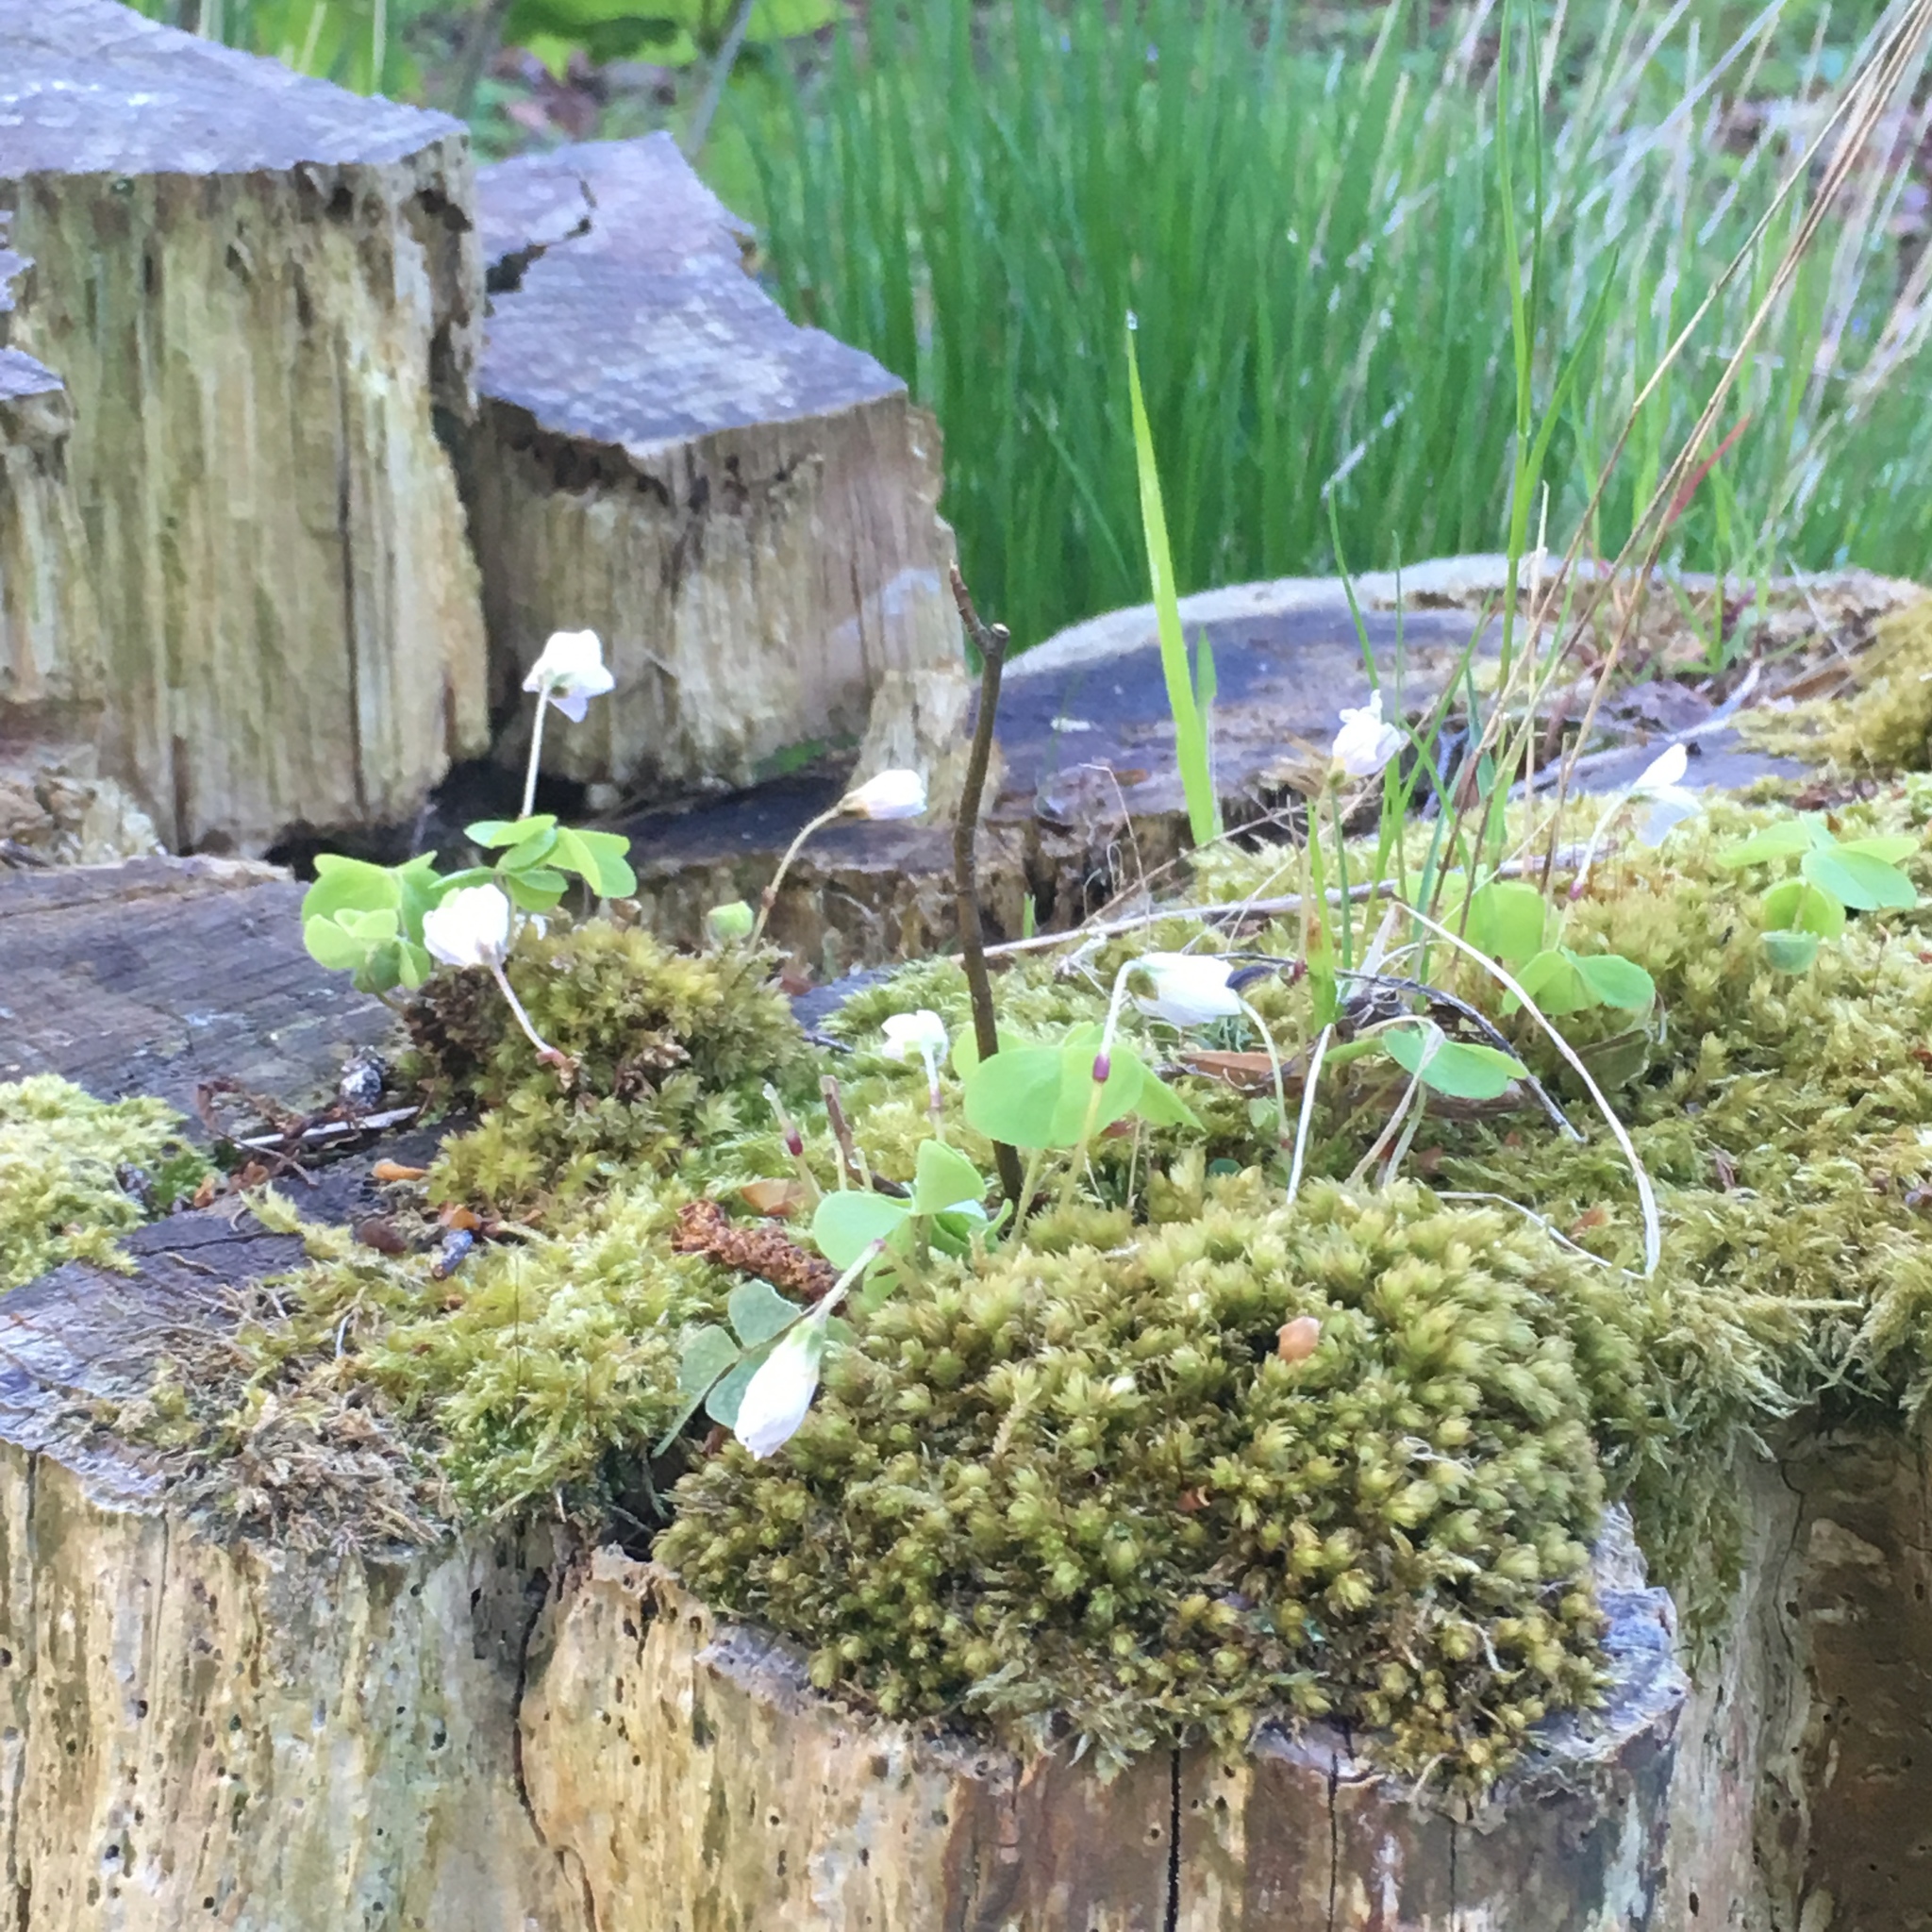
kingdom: Plantae
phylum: Tracheophyta
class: Magnoliopsida
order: Oxalidales
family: Oxalidaceae
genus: Oxalis
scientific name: Oxalis acetosella
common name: Wood-sorrel
